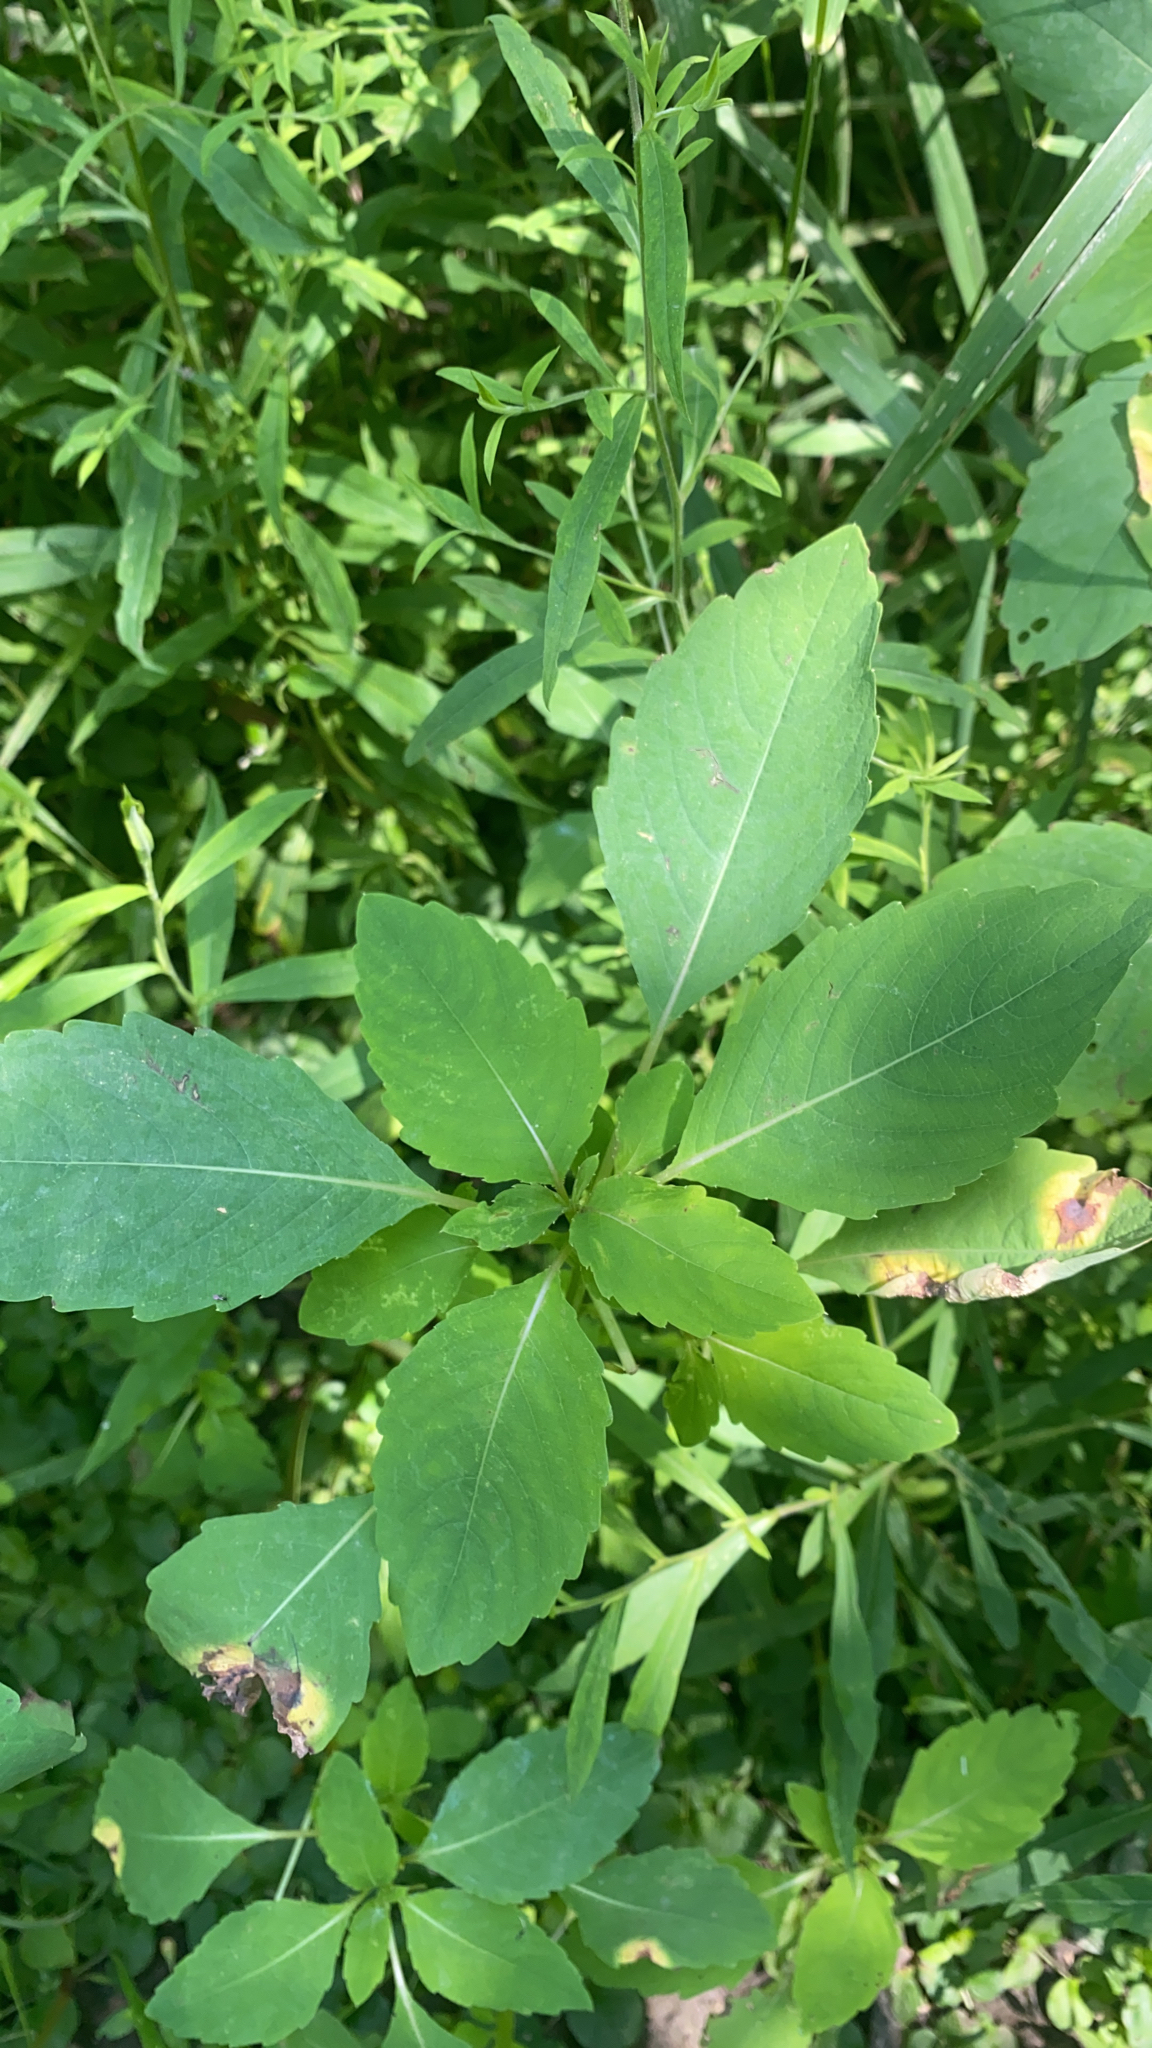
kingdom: Plantae
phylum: Tracheophyta
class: Magnoliopsida
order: Ericales
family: Balsaminaceae
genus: Impatiens
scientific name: Impatiens capensis
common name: Orange balsam
